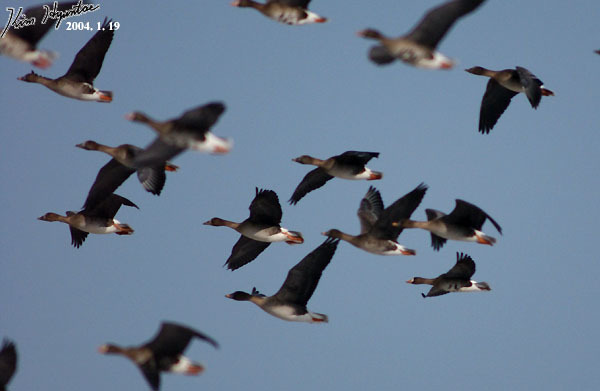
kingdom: Animalia
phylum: Chordata
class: Aves
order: Anseriformes
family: Anatidae
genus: Anser
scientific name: Anser fabalis
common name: Bean goose
